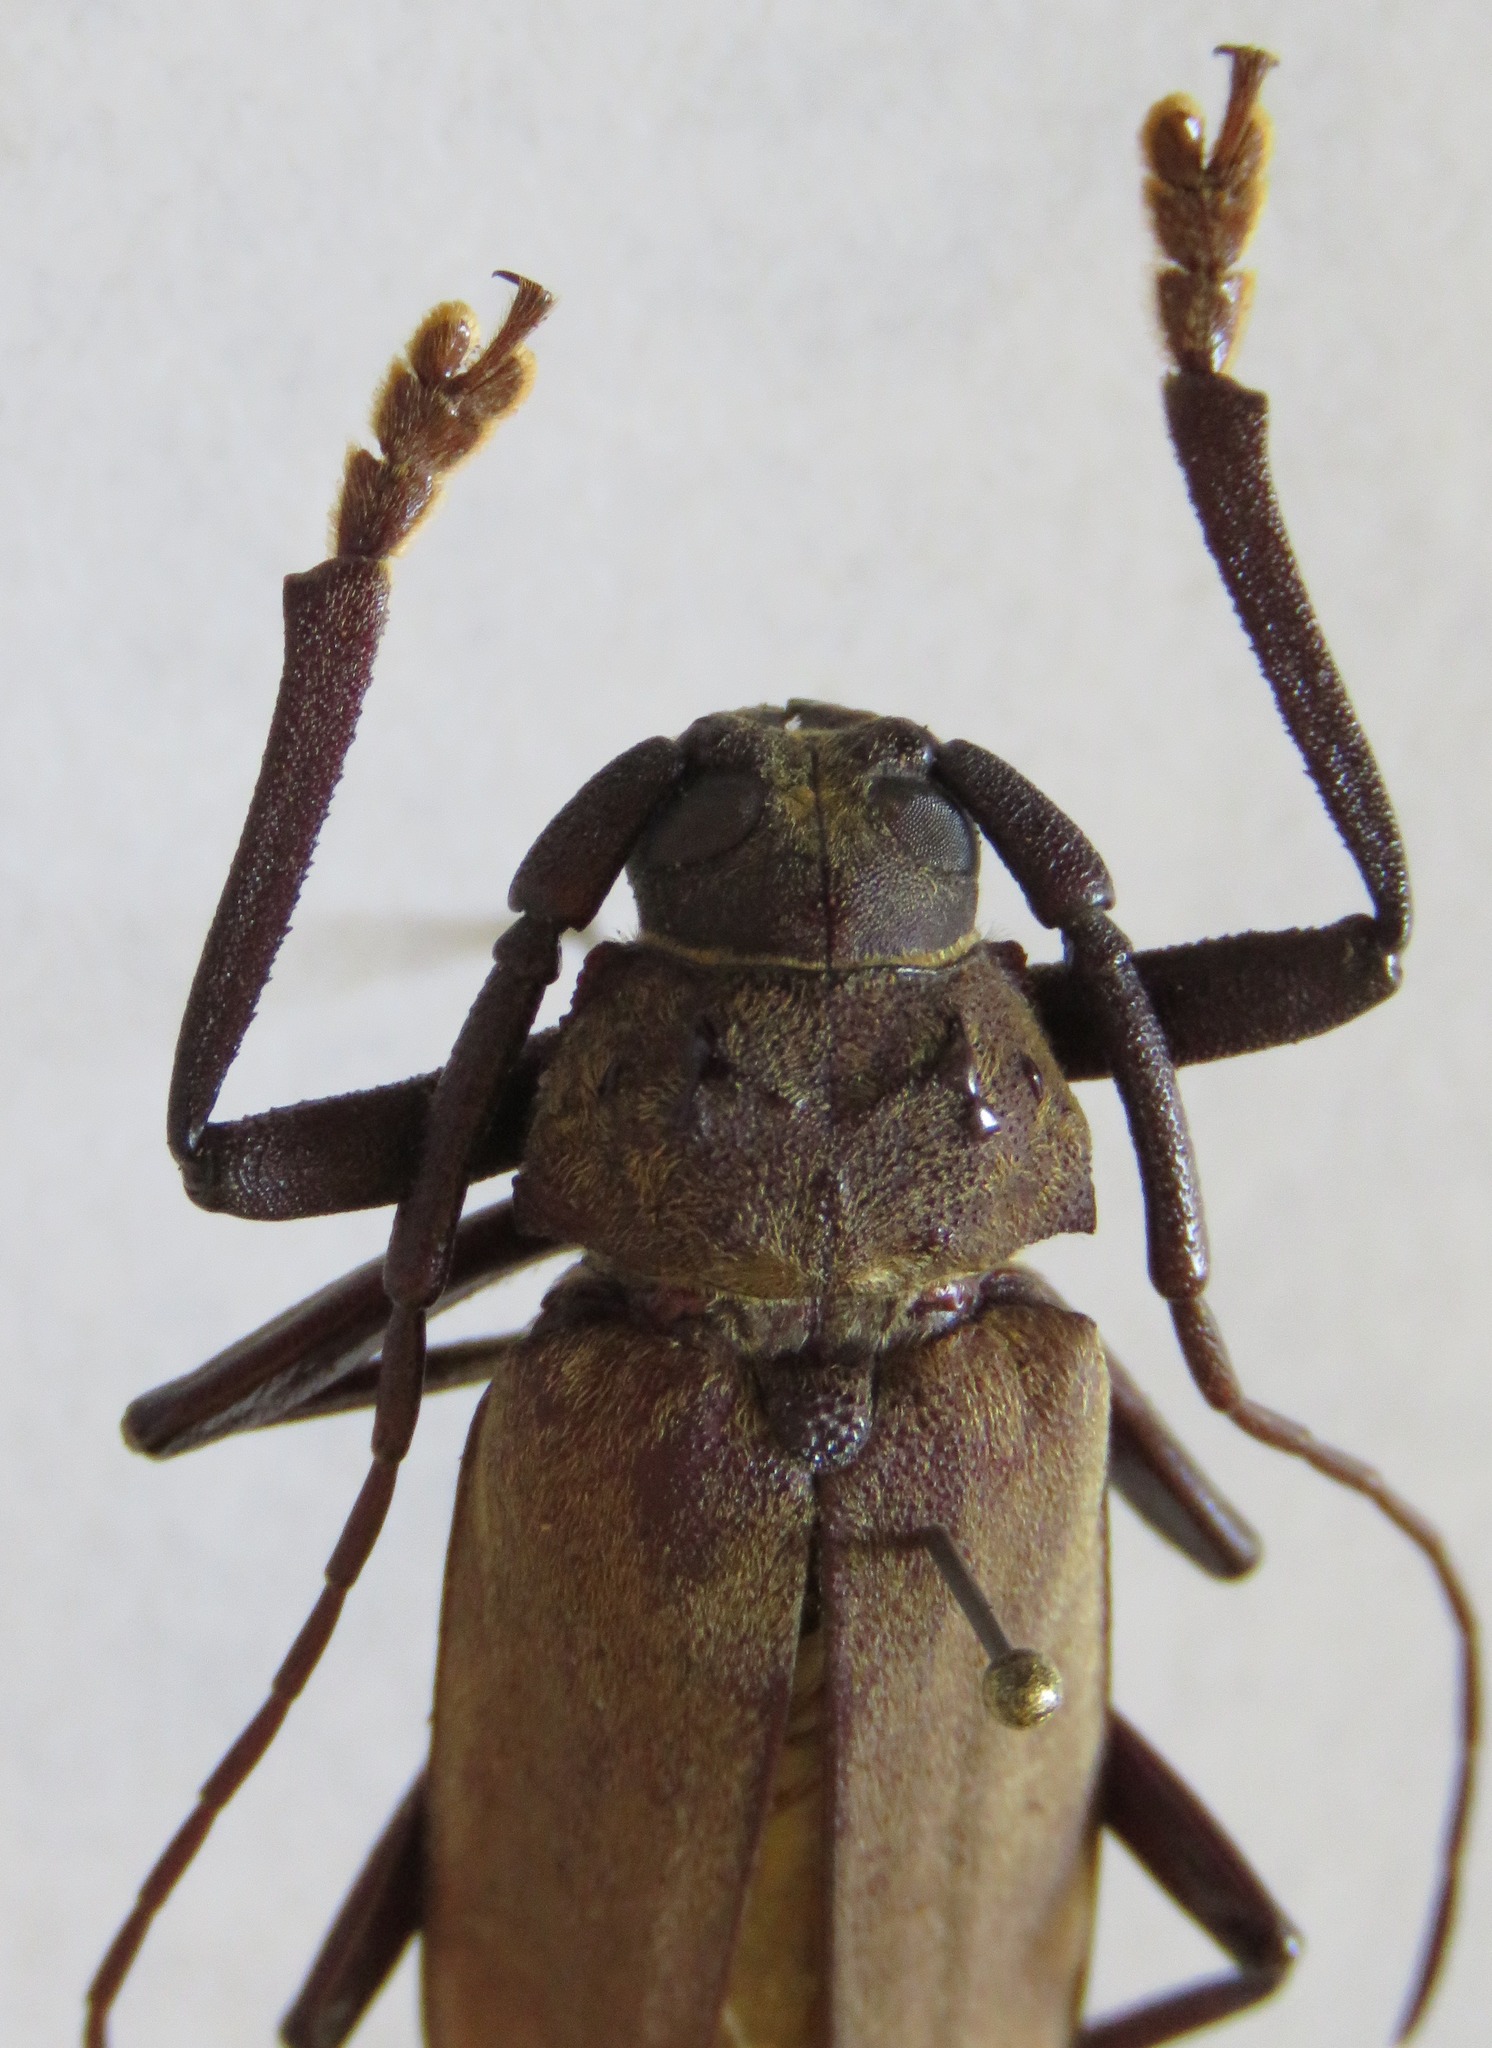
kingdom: Animalia
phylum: Arthropoda
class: Insecta
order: Coleoptera
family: Cerambycidae
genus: Strongylaspis
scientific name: Strongylaspis corticaria
